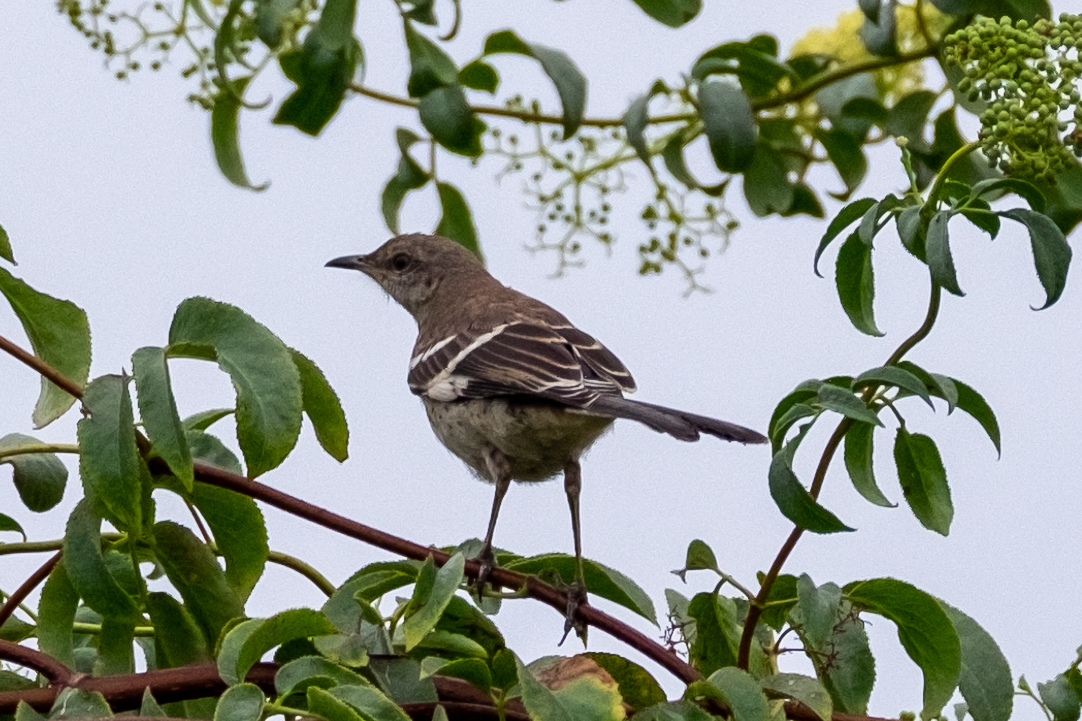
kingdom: Animalia
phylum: Chordata
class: Aves
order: Passeriformes
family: Mimidae
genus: Mimus
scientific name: Mimus polyglottos
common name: Northern mockingbird
